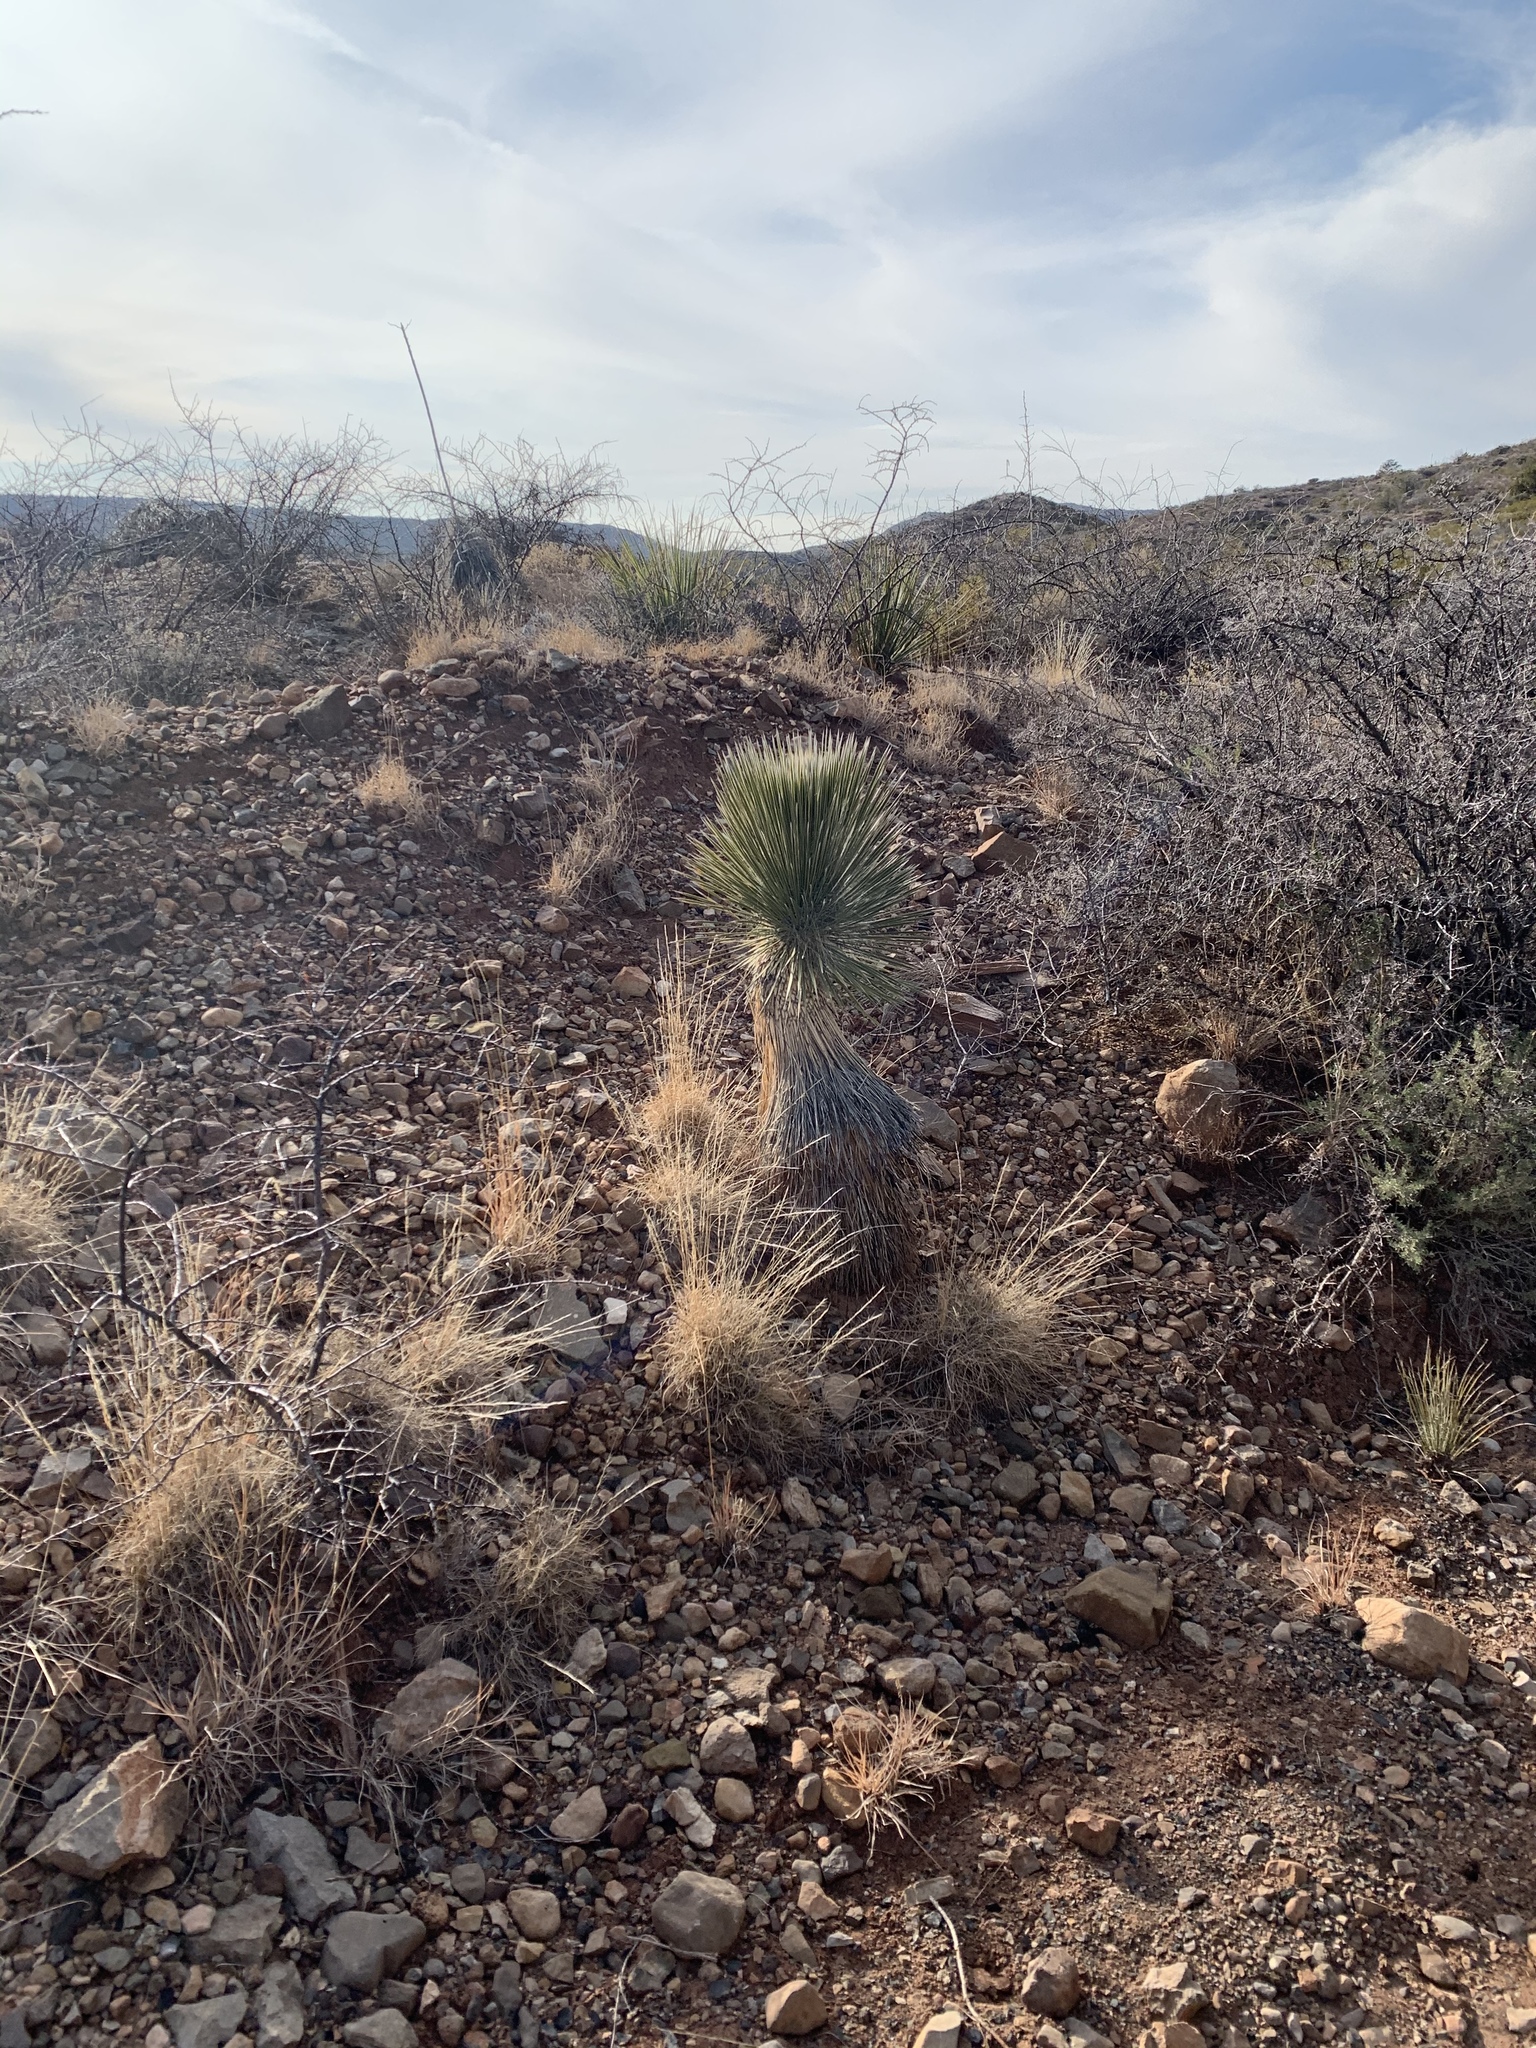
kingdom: Plantae
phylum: Tracheophyta
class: Liliopsida
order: Asparagales
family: Asparagaceae
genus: Yucca
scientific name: Yucca elata
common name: Palmella
